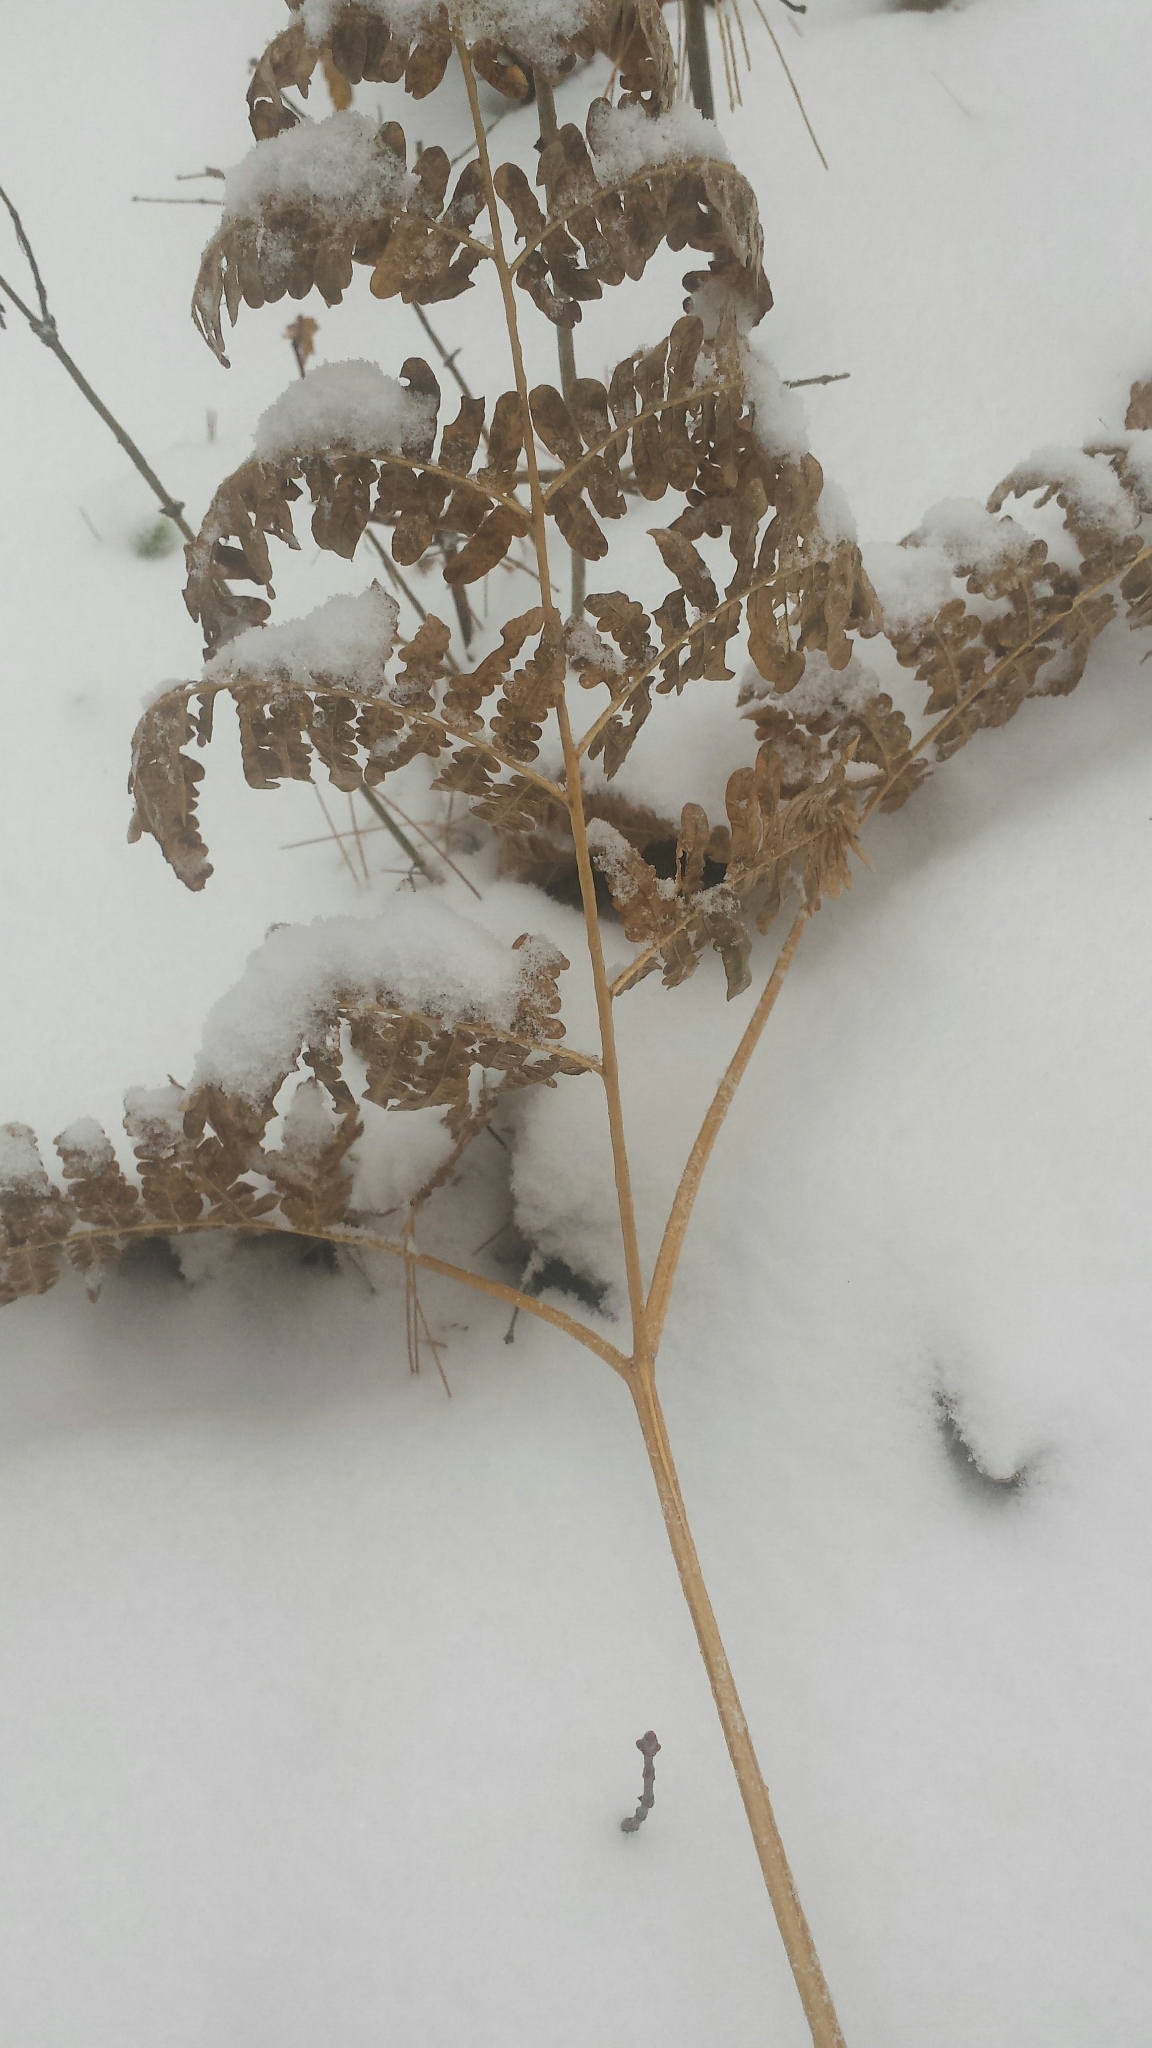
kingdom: Plantae
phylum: Tracheophyta
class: Polypodiopsida
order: Polypodiales
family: Dennstaedtiaceae
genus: Pteridium
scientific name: Pteridium aquilinum
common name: Bracken
